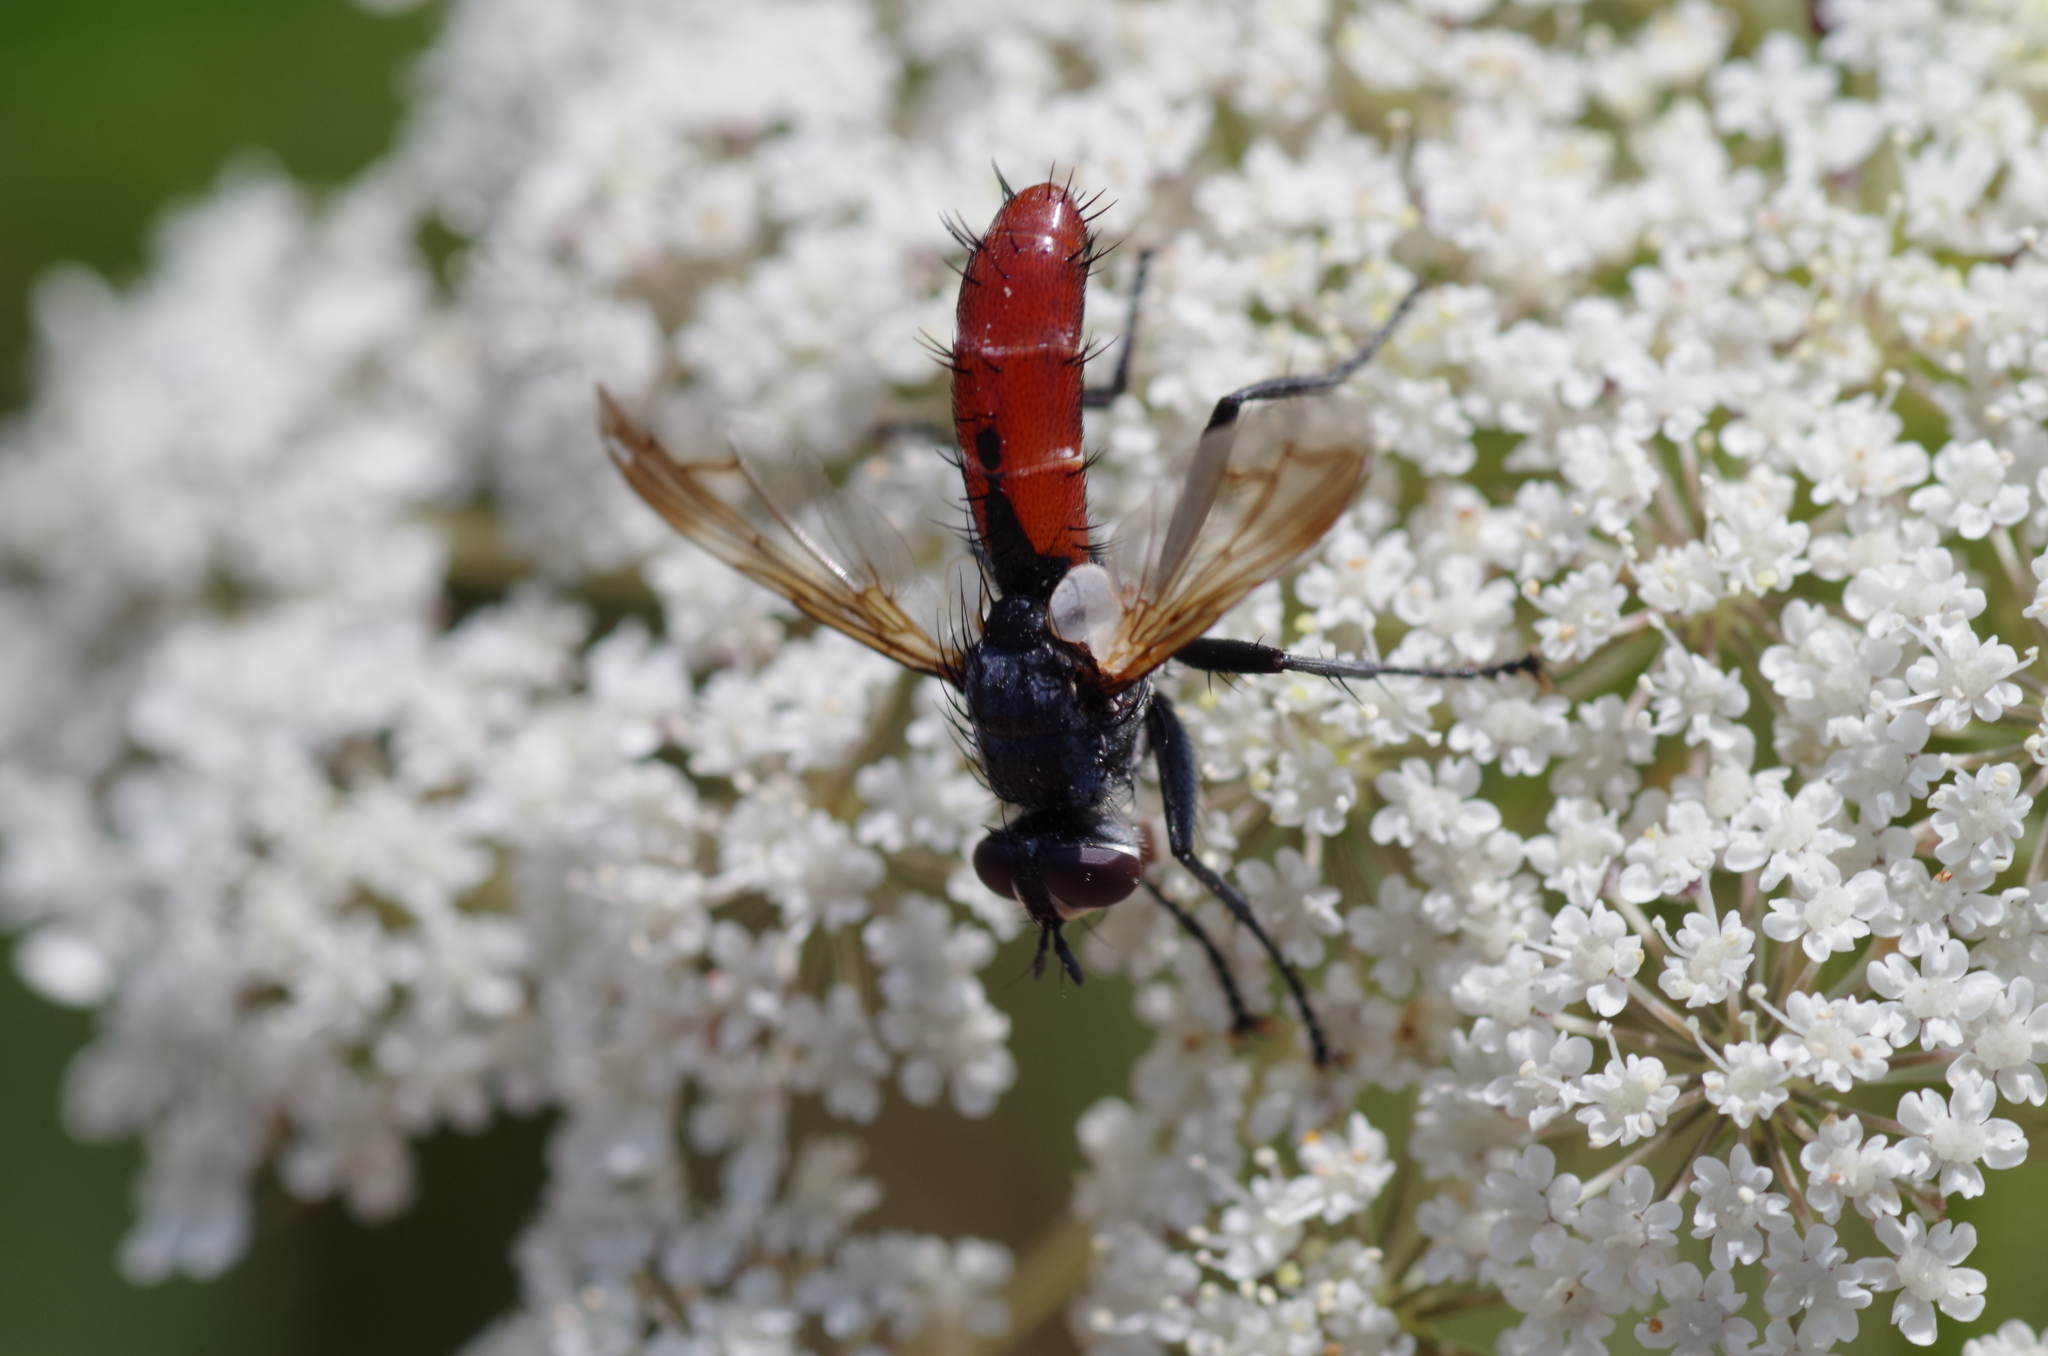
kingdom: Animalia
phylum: Arthropoda
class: Insecta
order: Diptera
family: Tachinidae
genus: Cylindromyia
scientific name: Cylindromyia bicolor
